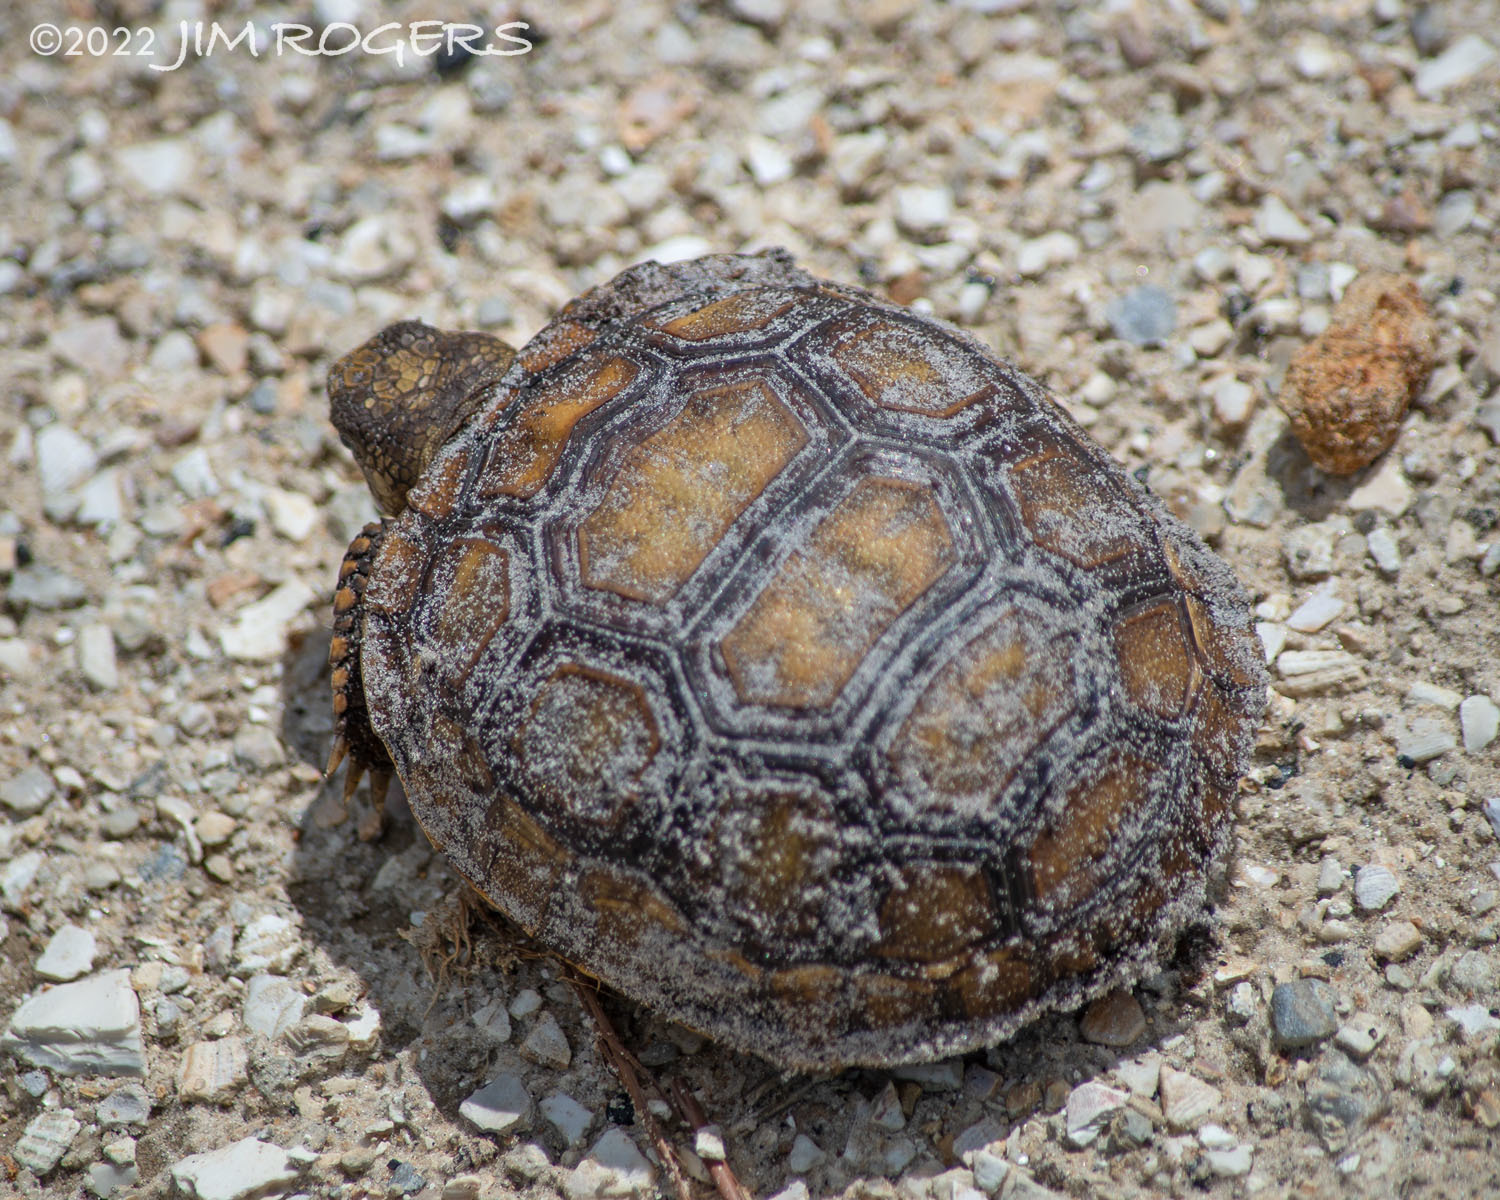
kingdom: Animalia
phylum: Chordata
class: Testudines
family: Testudinidae
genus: Gopherus
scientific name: Gopherus polyphemus
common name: Florida gopher tortoise
